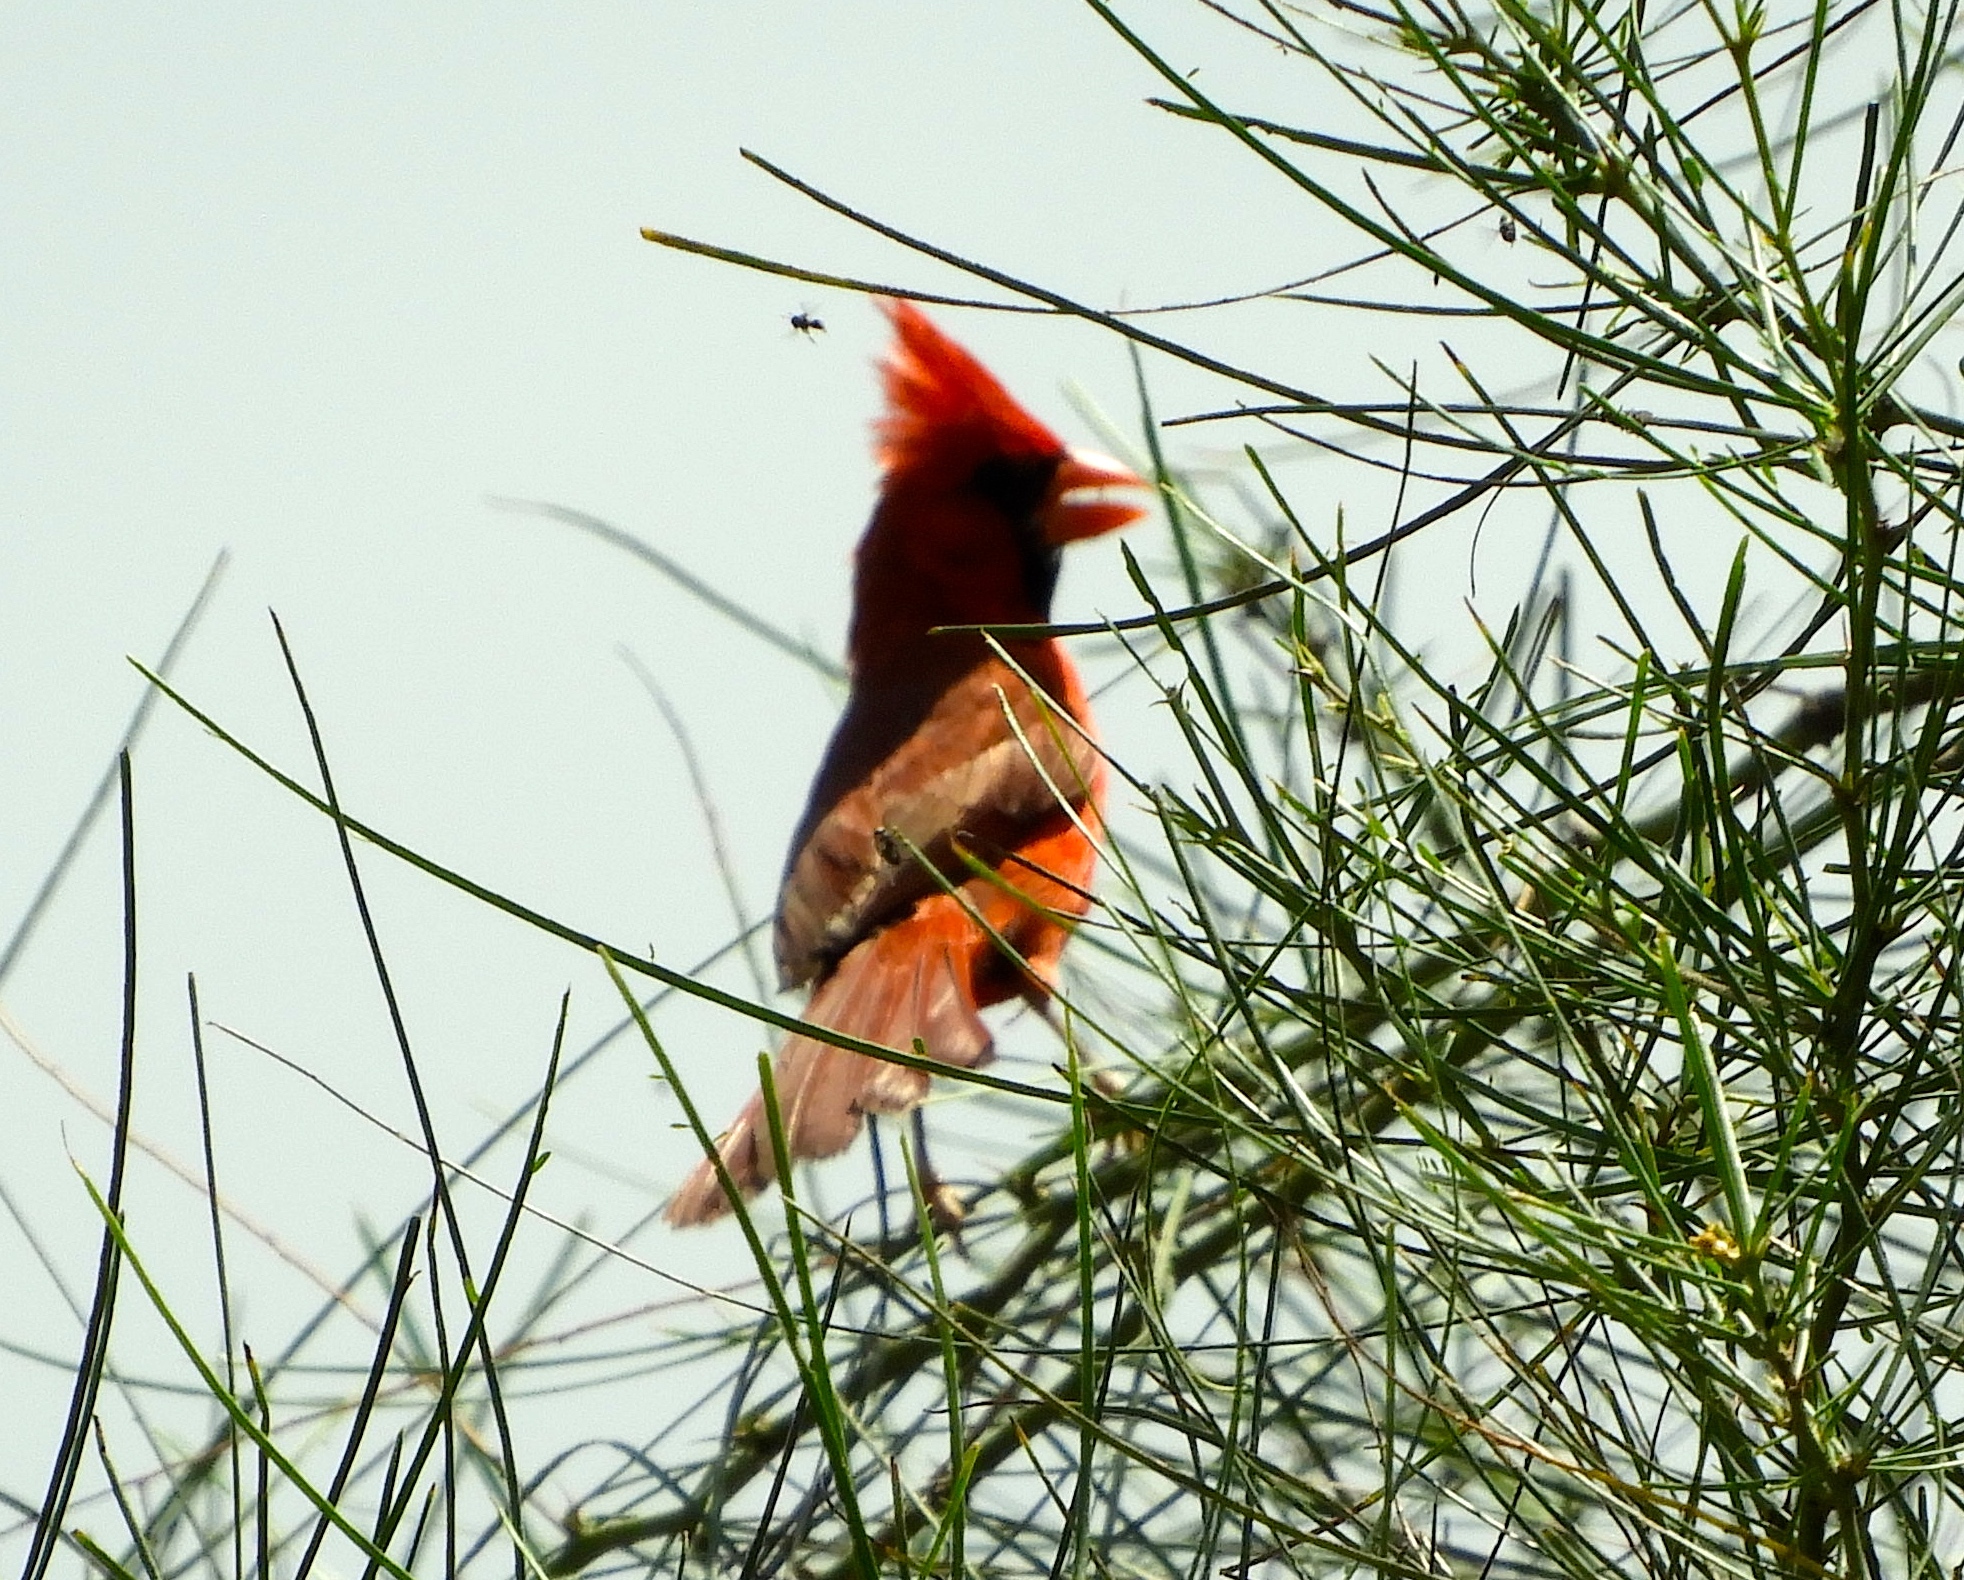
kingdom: Animalia
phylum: Chordata
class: Aves
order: Passeriformes
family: Cardinalidae
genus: Cardinalis
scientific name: Cardinalis cardinalis
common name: Northern cardinal
